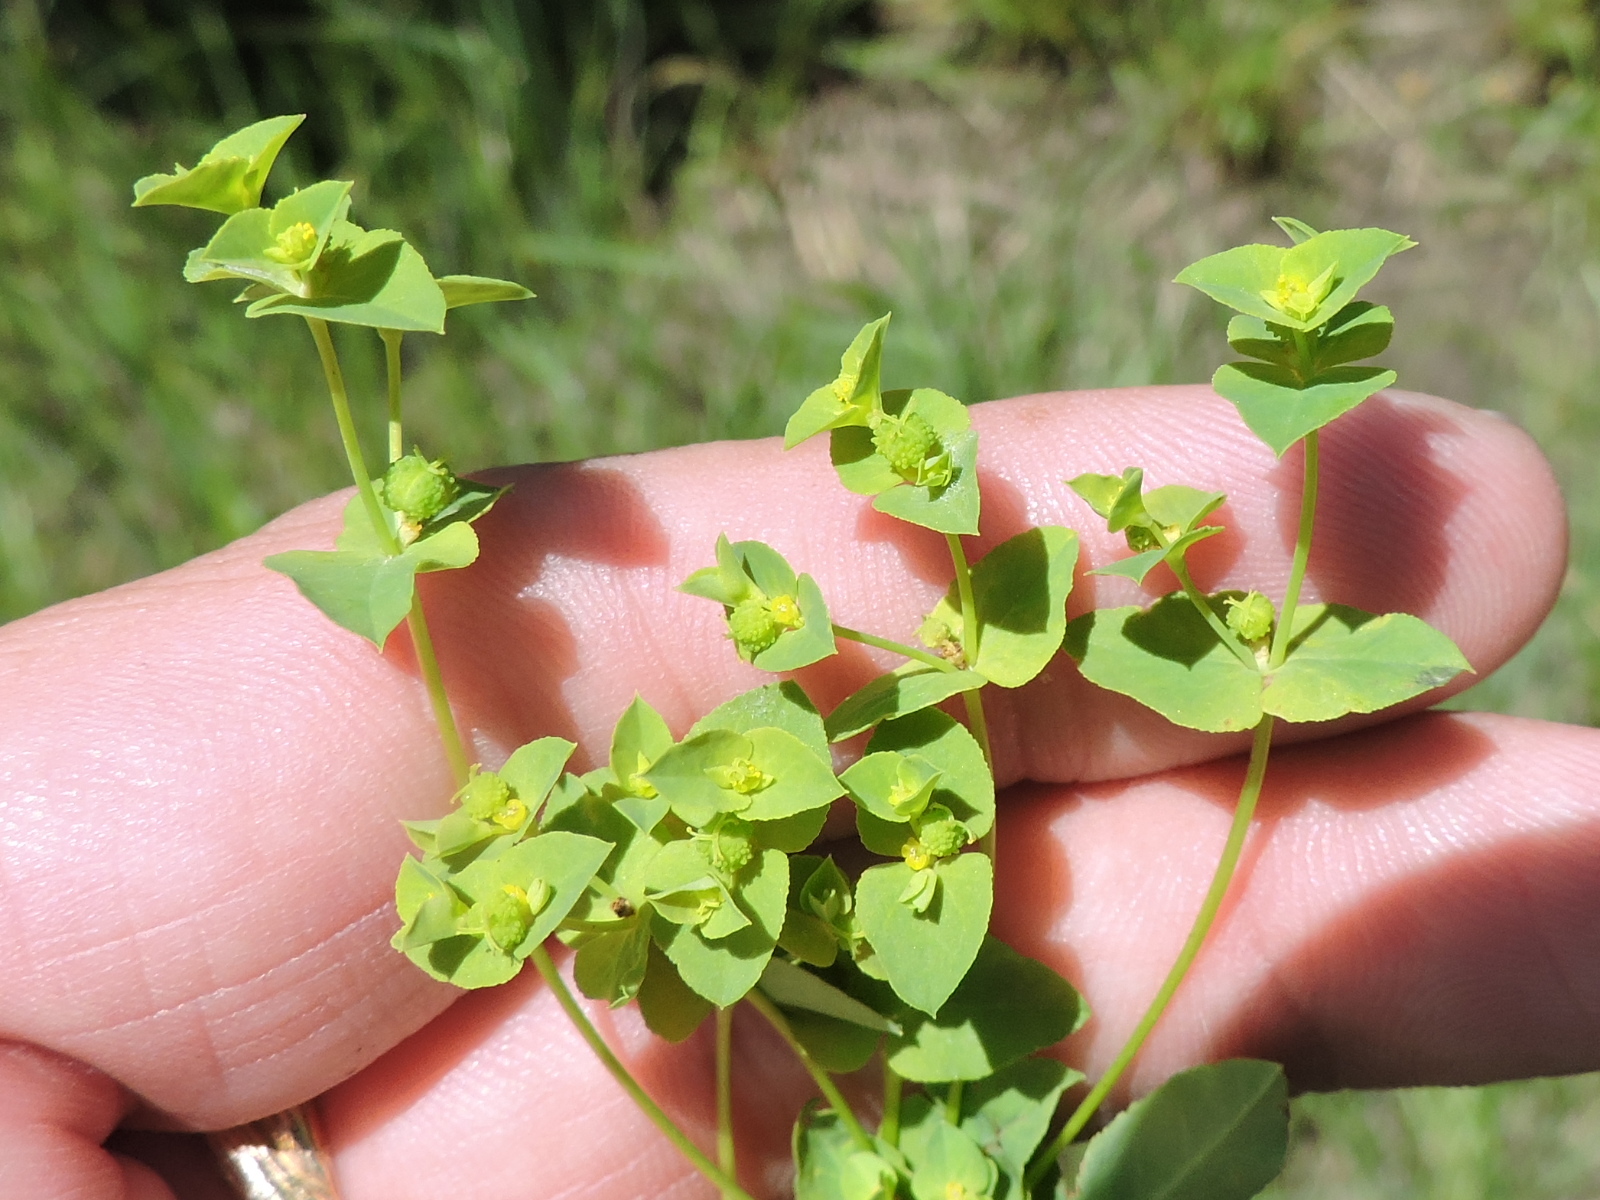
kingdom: Plantae
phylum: Tracheophyta
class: Magnoliopsida
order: Malpighiales
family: Euphorbiaceae
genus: Euphorbia
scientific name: Euphorbia spathulata
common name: Blunt spurge
